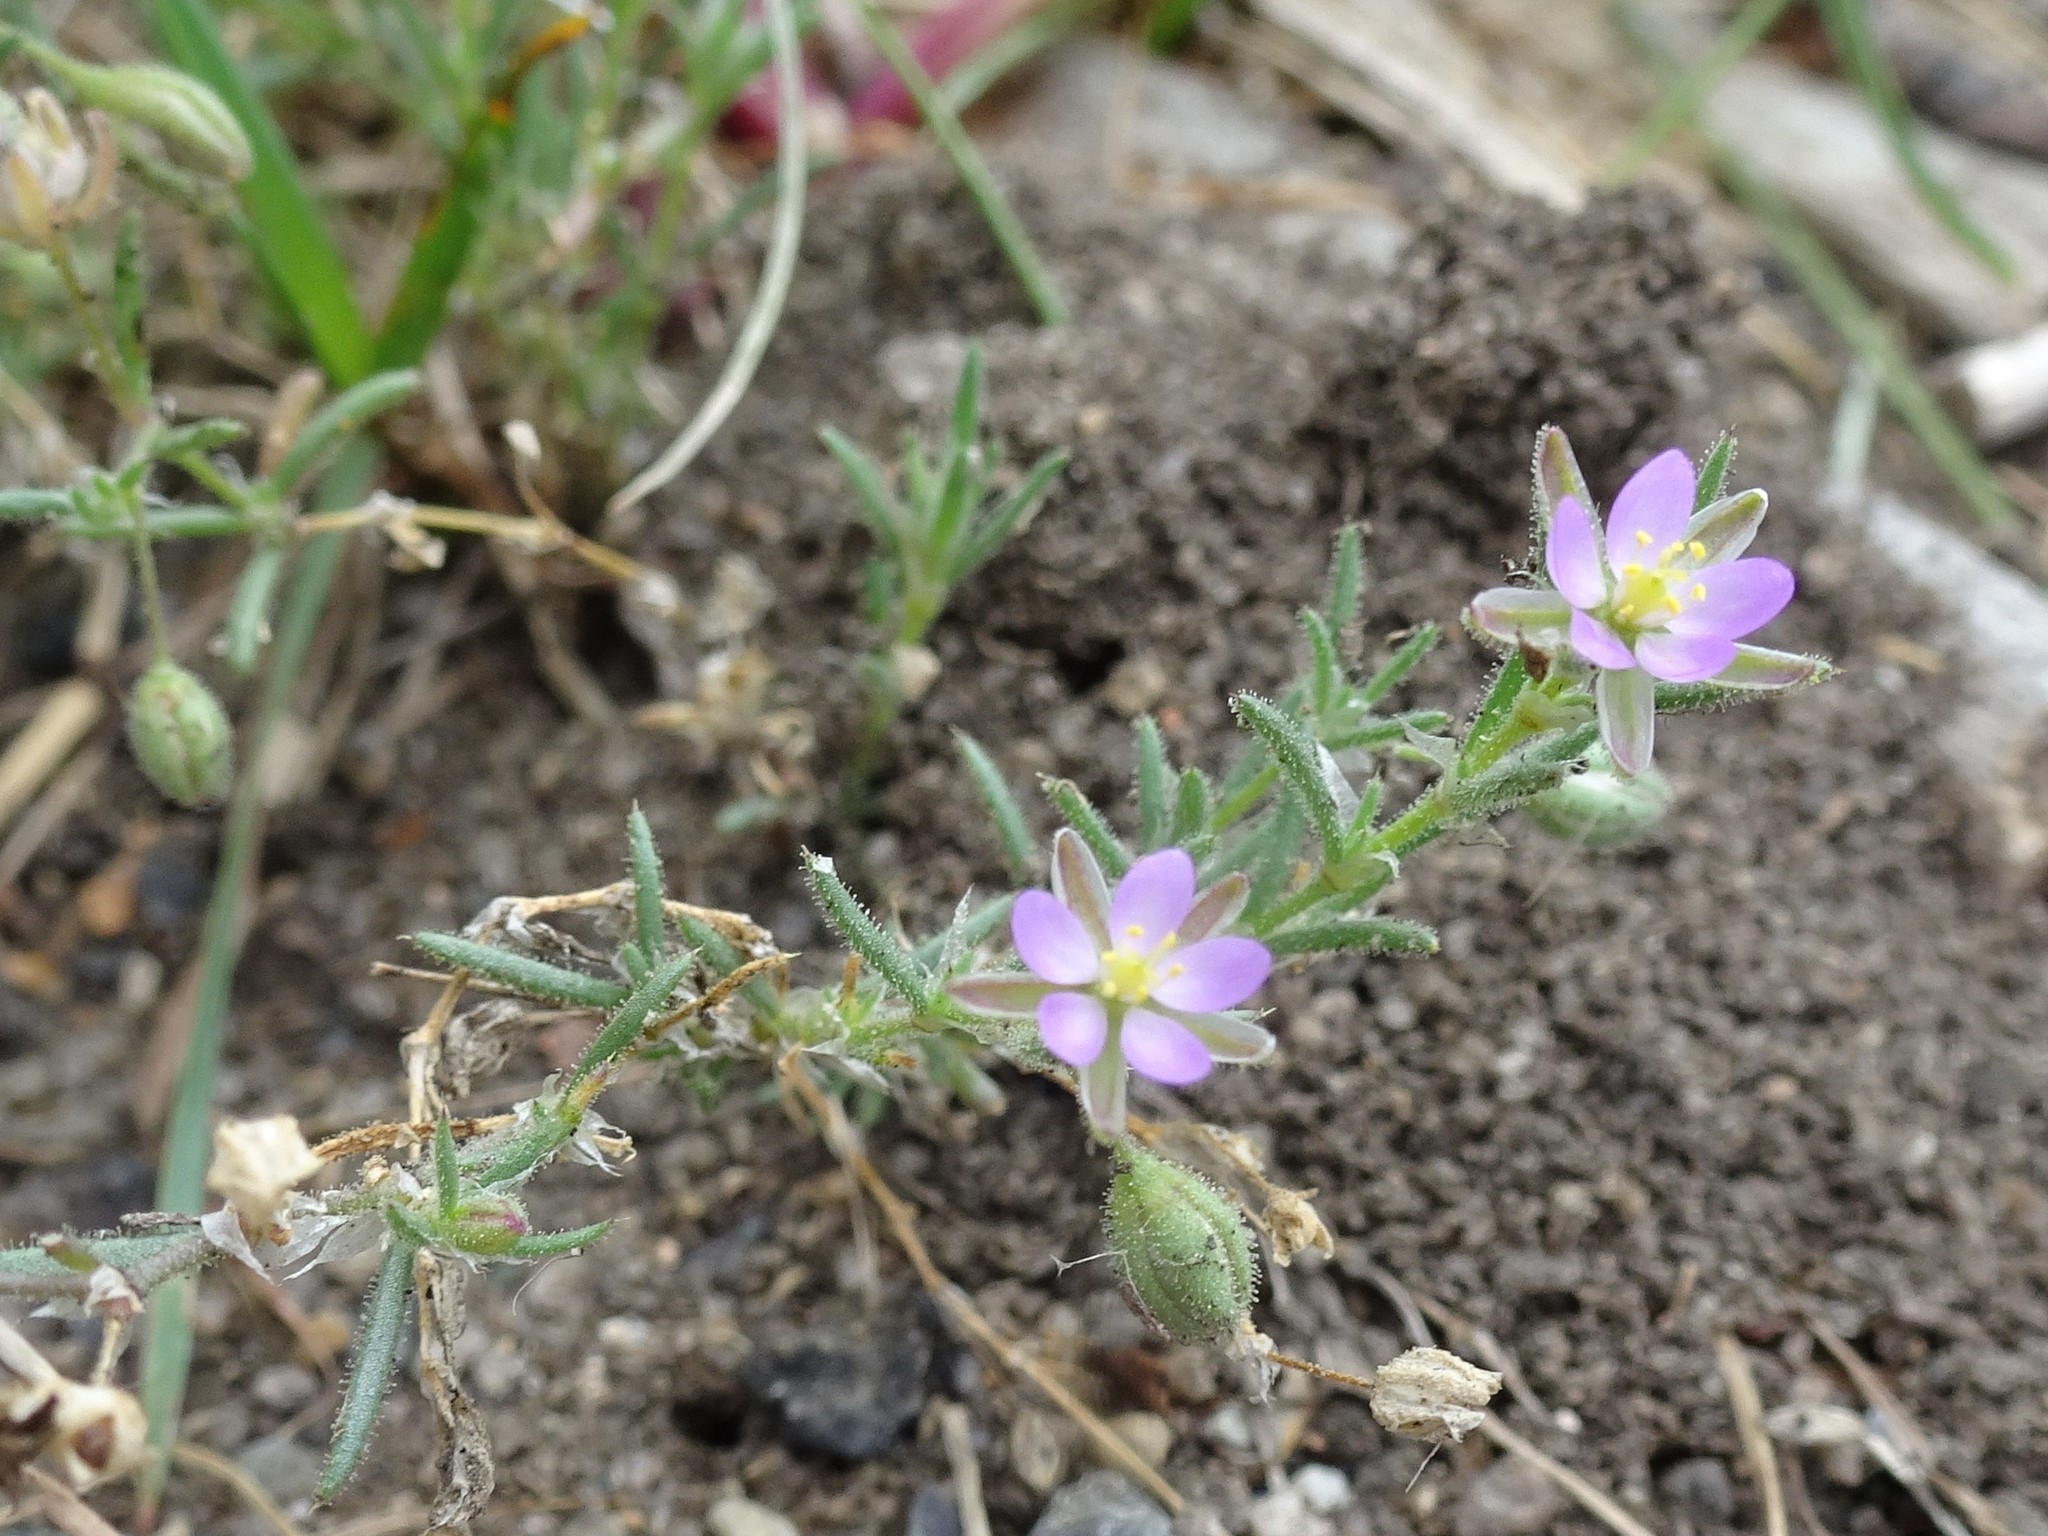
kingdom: Plantae
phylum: Tracheophyta
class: Magnoliopsida
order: Caryophyllales
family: Caryophyllaceae
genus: Spergularia
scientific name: Spergularia rubra
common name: Red sand-spurrey
